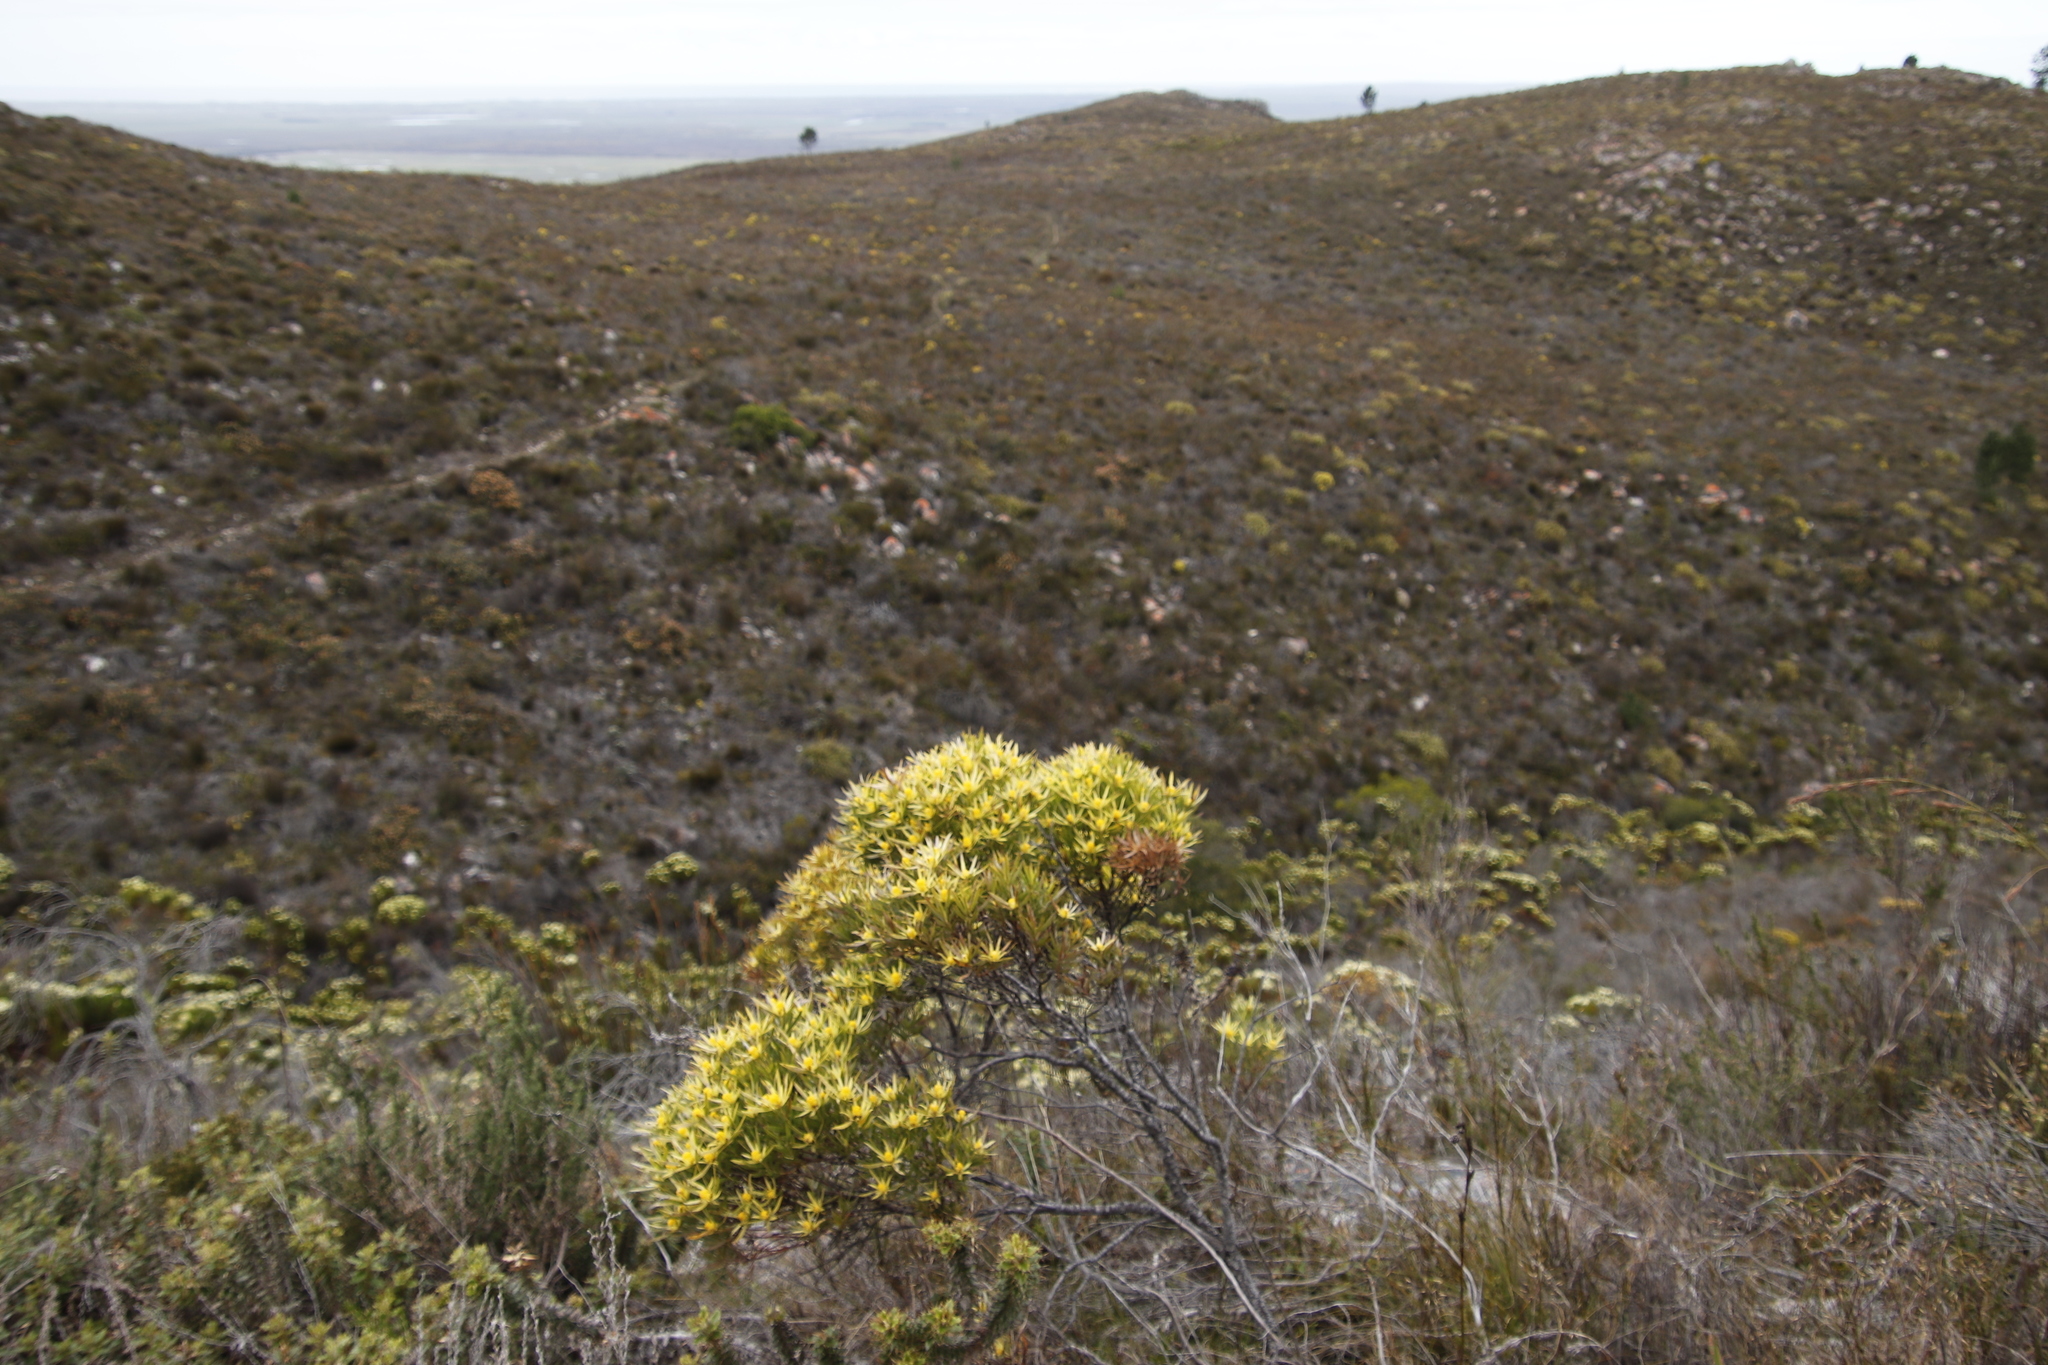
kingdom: Plantae
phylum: Tracheophyta
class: Magnoliopsida
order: Proteales
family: Proteaceae
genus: Leucadendron
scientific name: Leucadendron xanthoconus
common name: Sickle-leaf conebush
